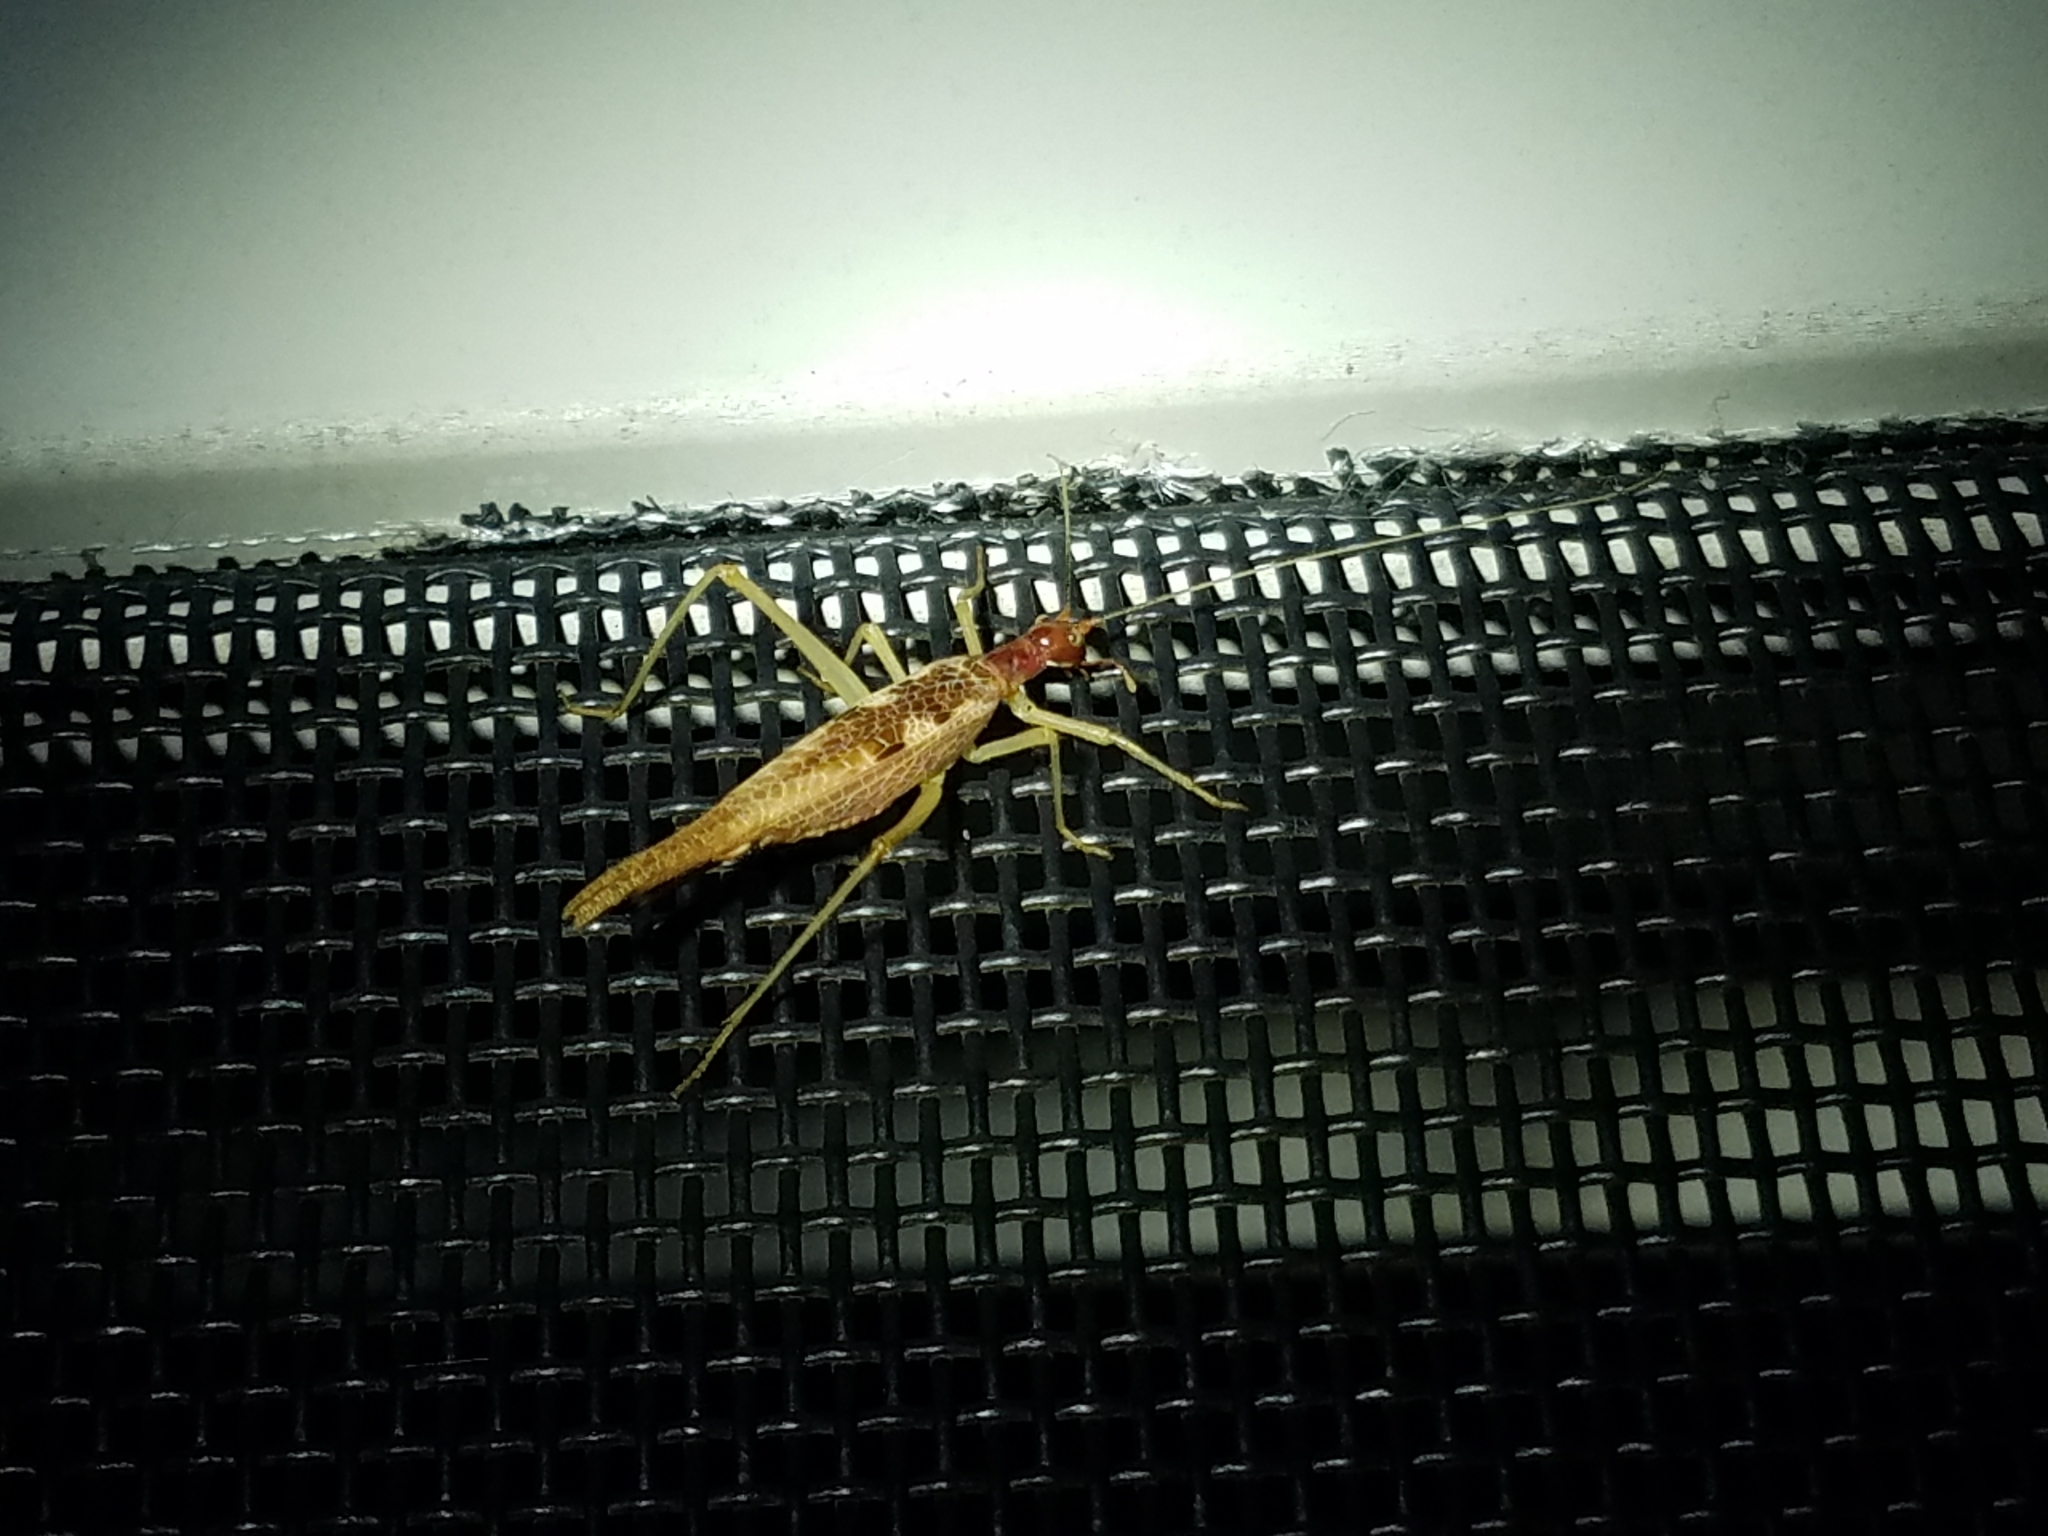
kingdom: Animalia
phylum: Arthropoda
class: Insecta
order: Orthoptera
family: Gryllidae
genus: Neoxabea
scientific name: Neoxabea bipunctata
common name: Two-spotted tree cricket
